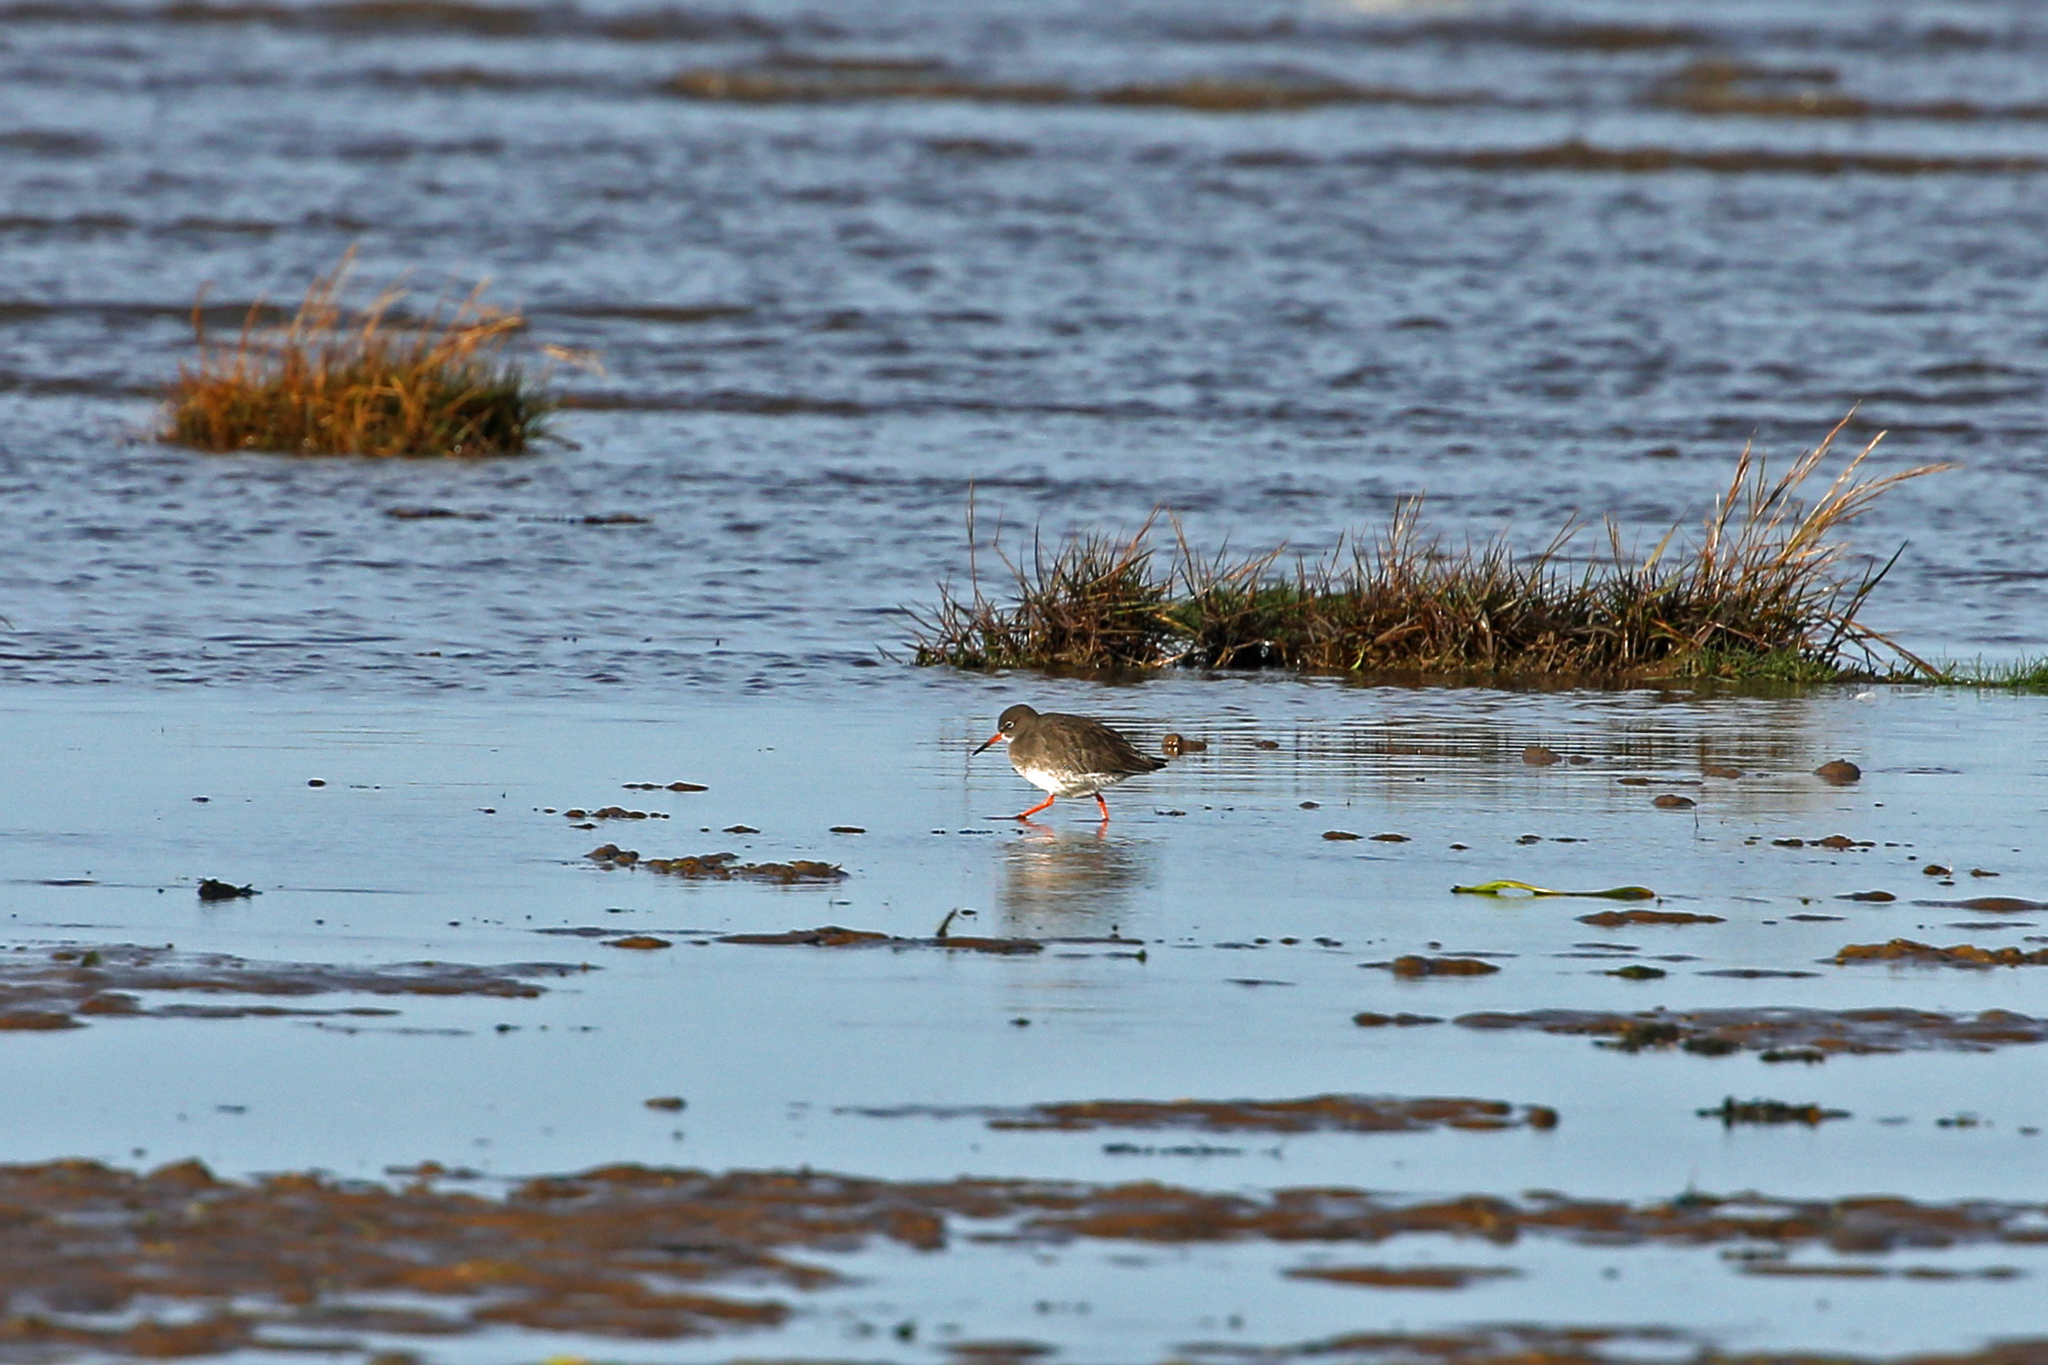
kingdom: Animalia
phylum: Chordata
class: Aves
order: Charadriiformes
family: Scolopacidae
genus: Tringa
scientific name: Tringa totanus
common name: Common redshank
